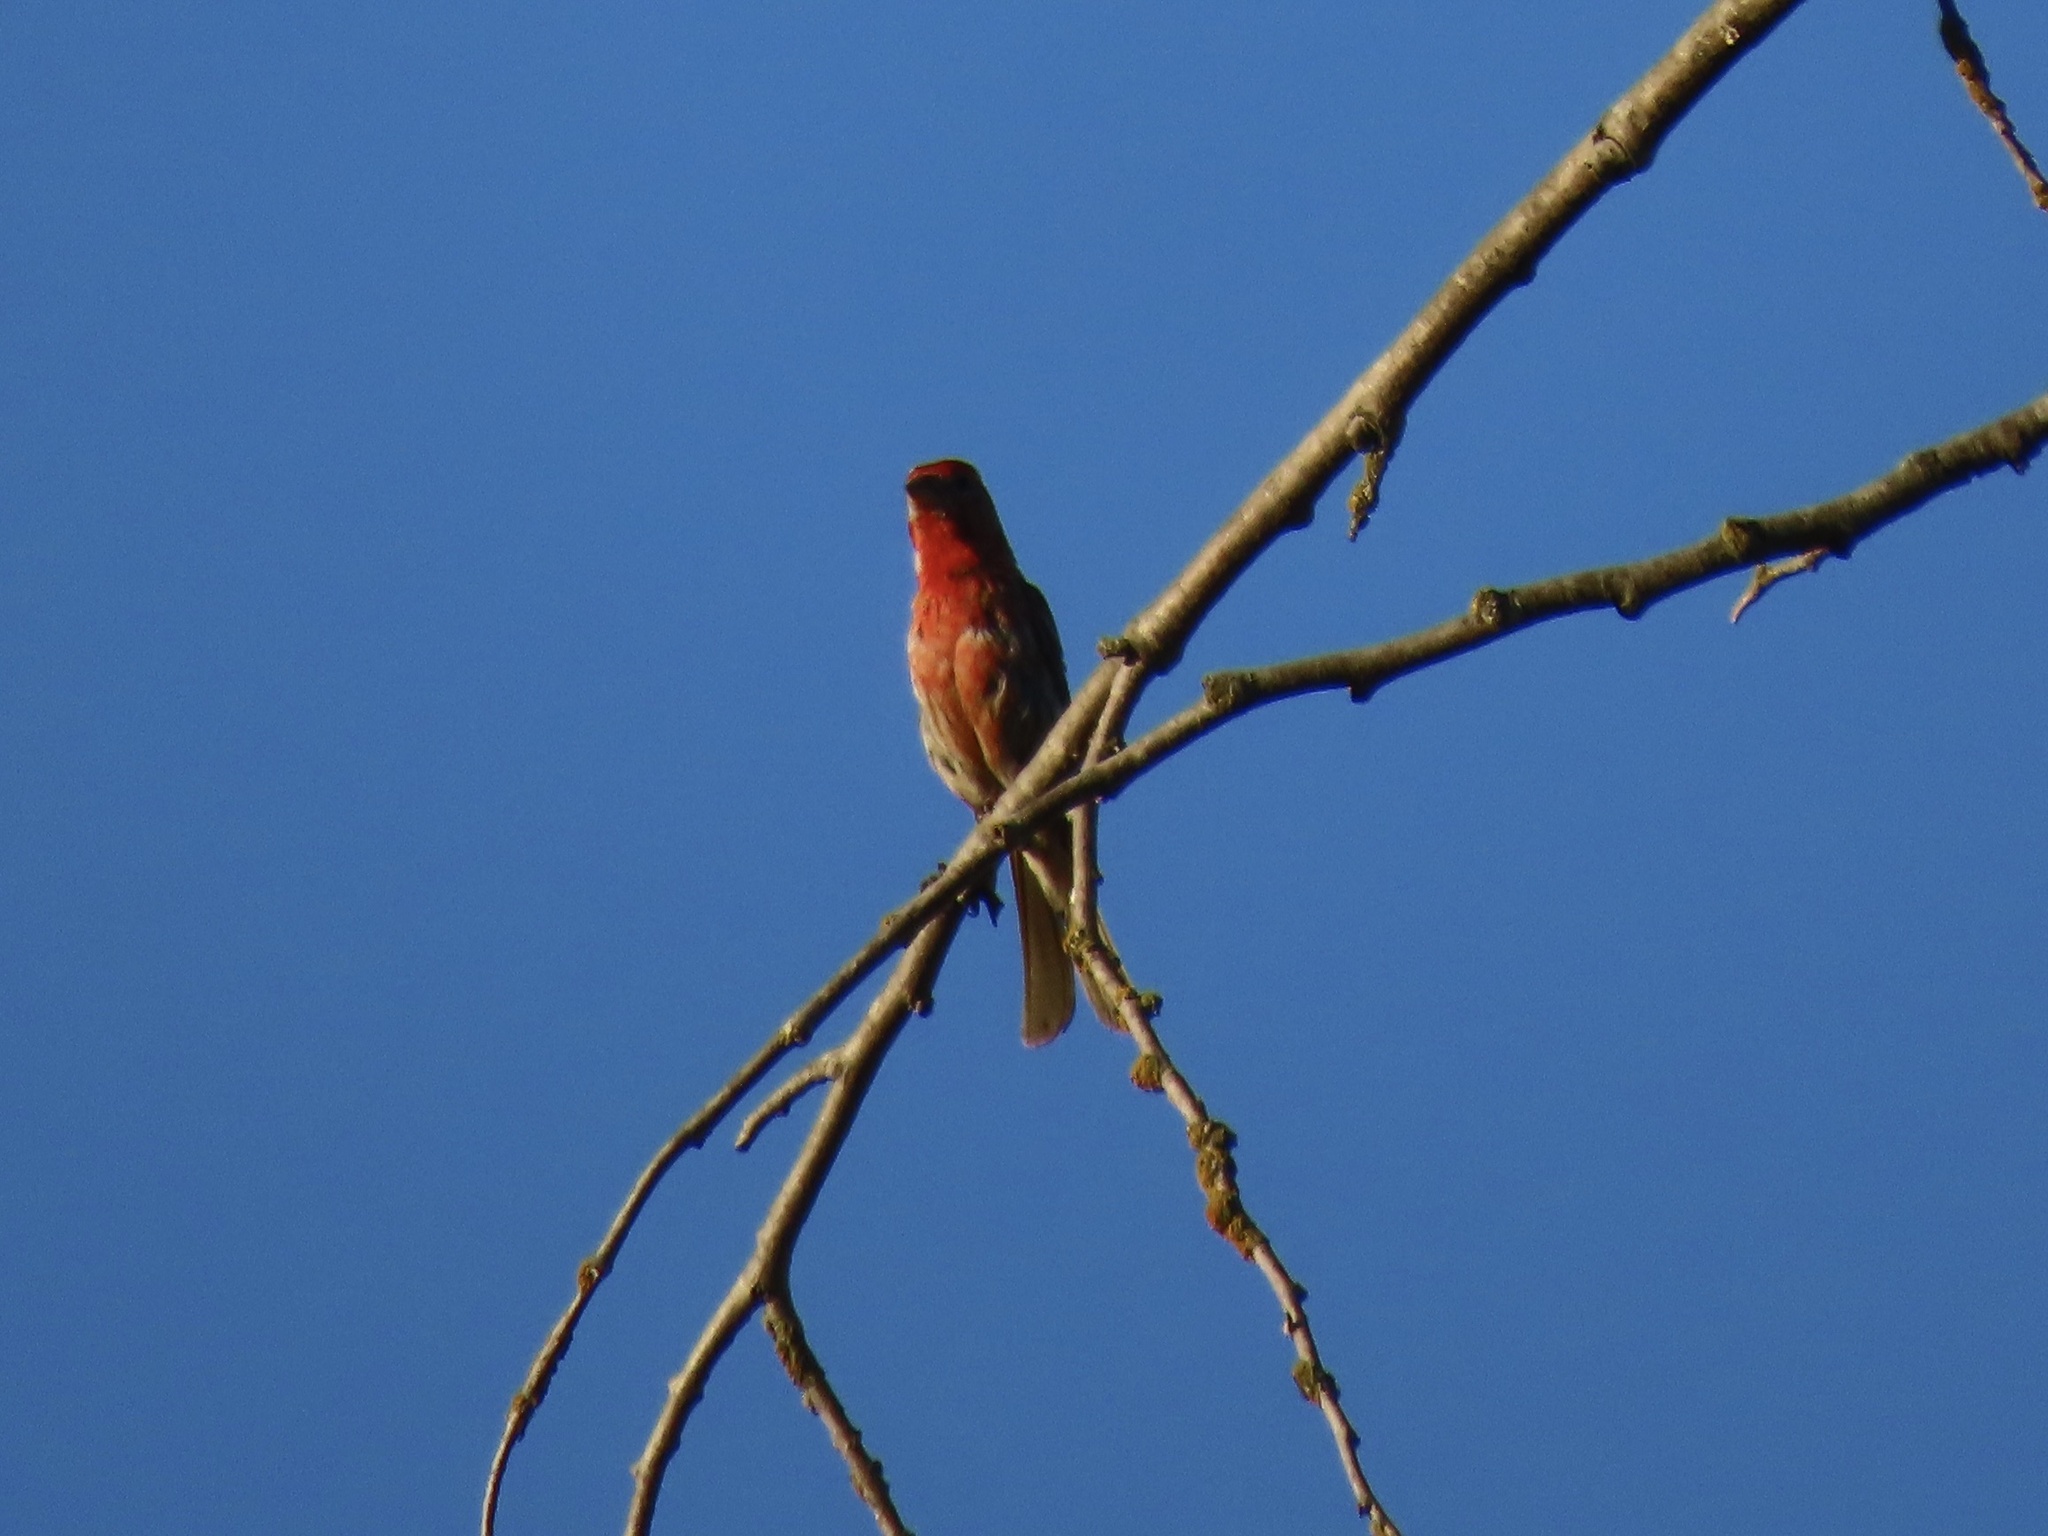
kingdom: Animalia
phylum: Chordata
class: Aves
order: Passeriformes
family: Fringillidae
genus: Haemorhous
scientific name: Haemorhous mexicanus
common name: House finch
